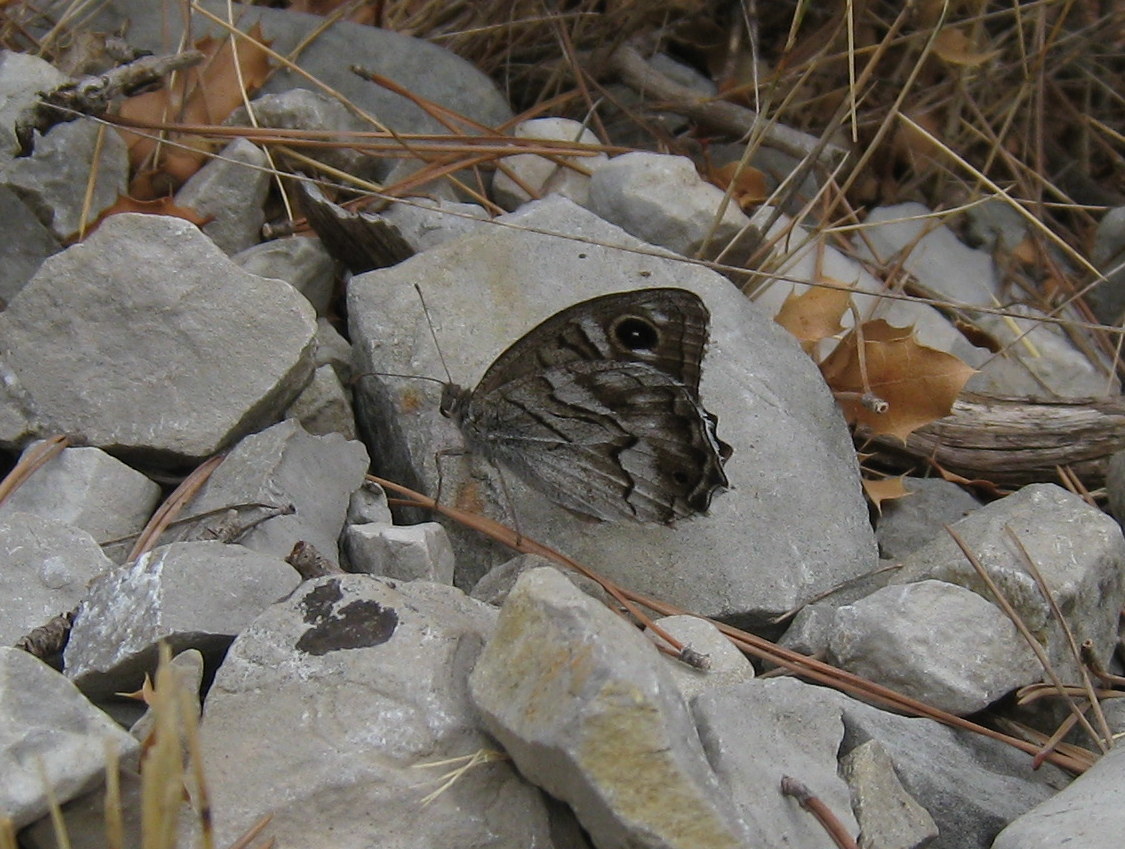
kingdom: Animalia
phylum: Arthropoda
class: Insecta
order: Lepidoptera
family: Nymphalidae
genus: Hipparchia
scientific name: Hipparchia fidia
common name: Striped grayling
